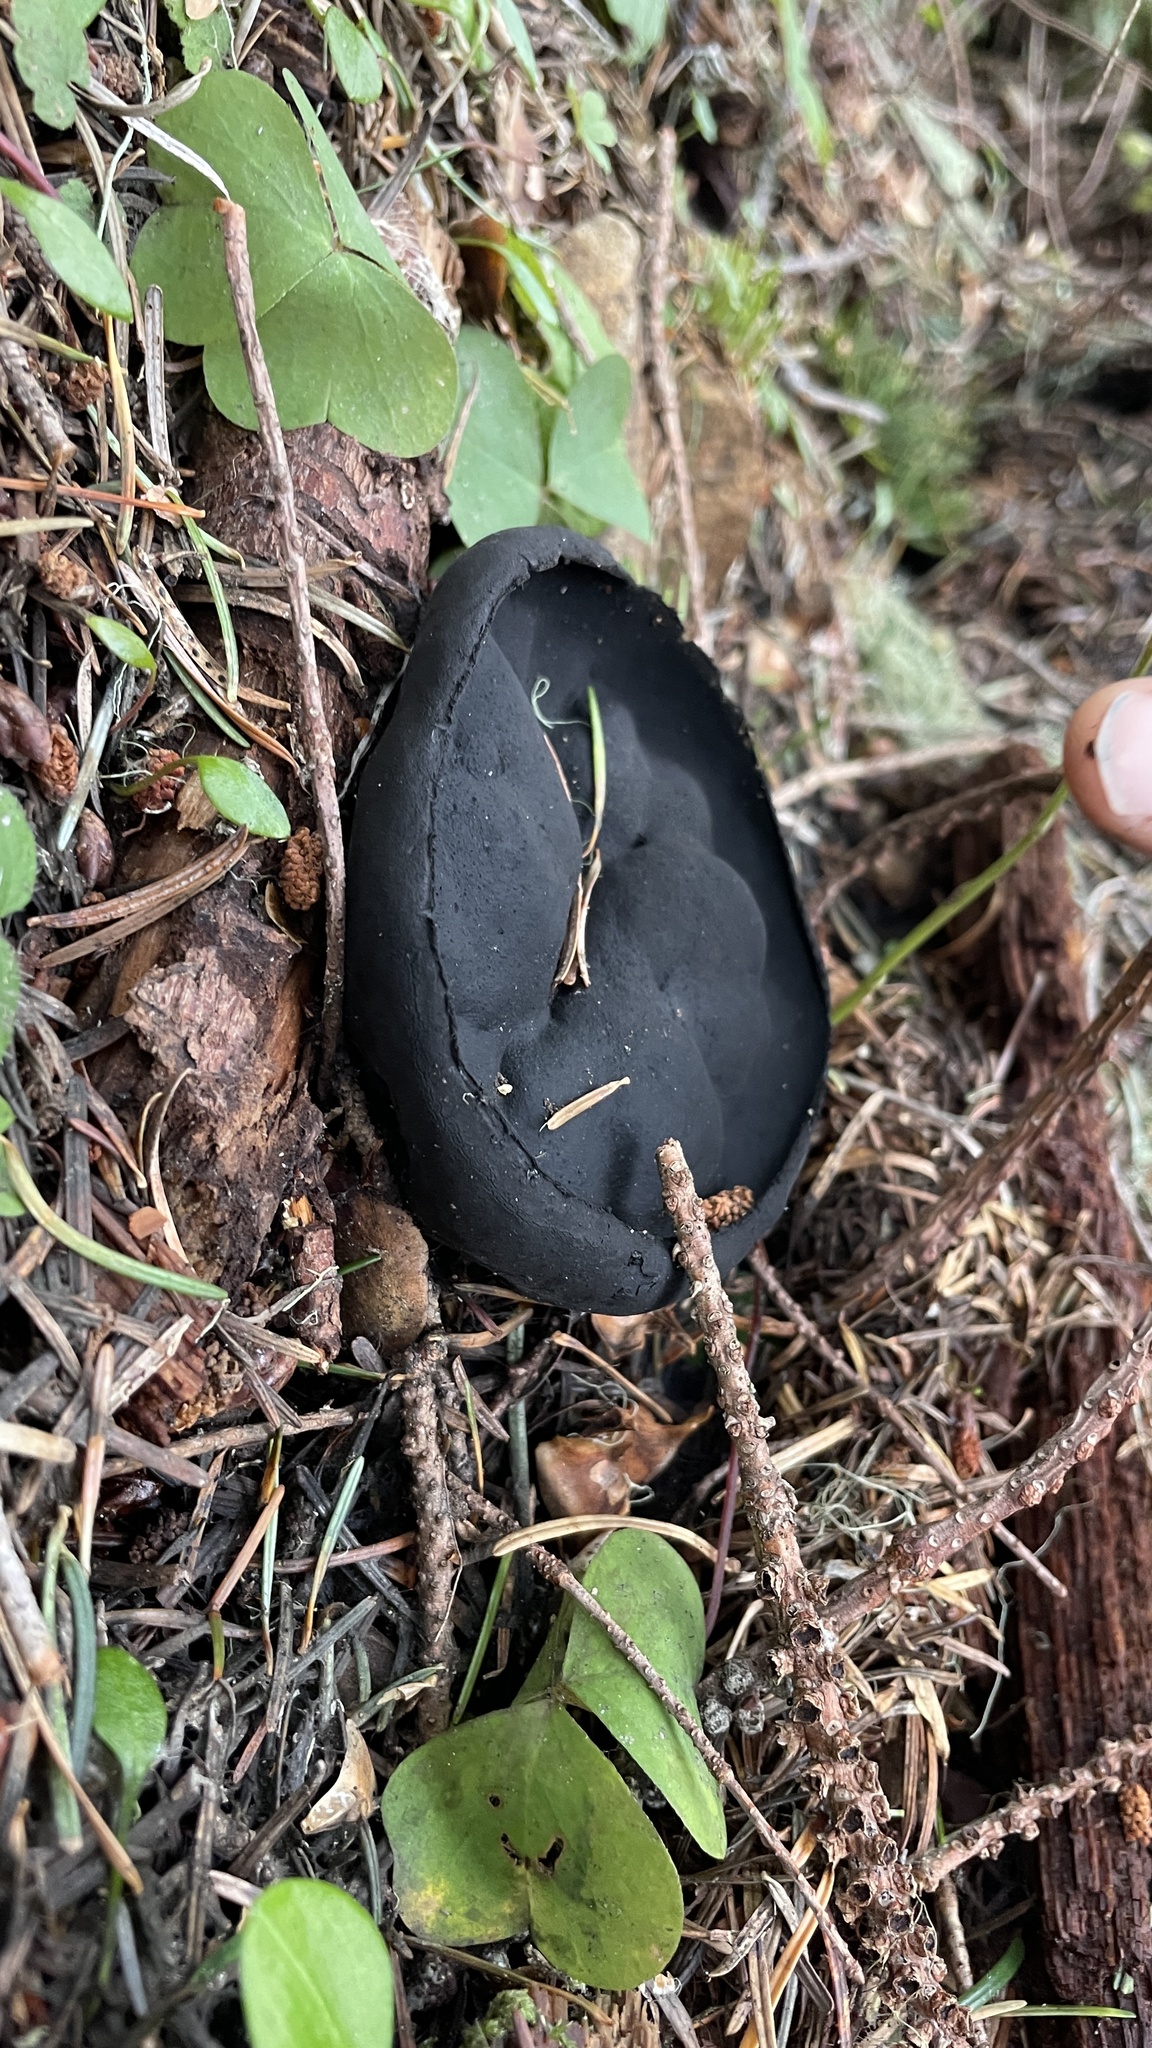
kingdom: Fungi
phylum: Ascomycota
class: Pezizomycetes
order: Pezizales
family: Sarcosomataceae
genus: Urnula
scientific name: Urnula padeniana
